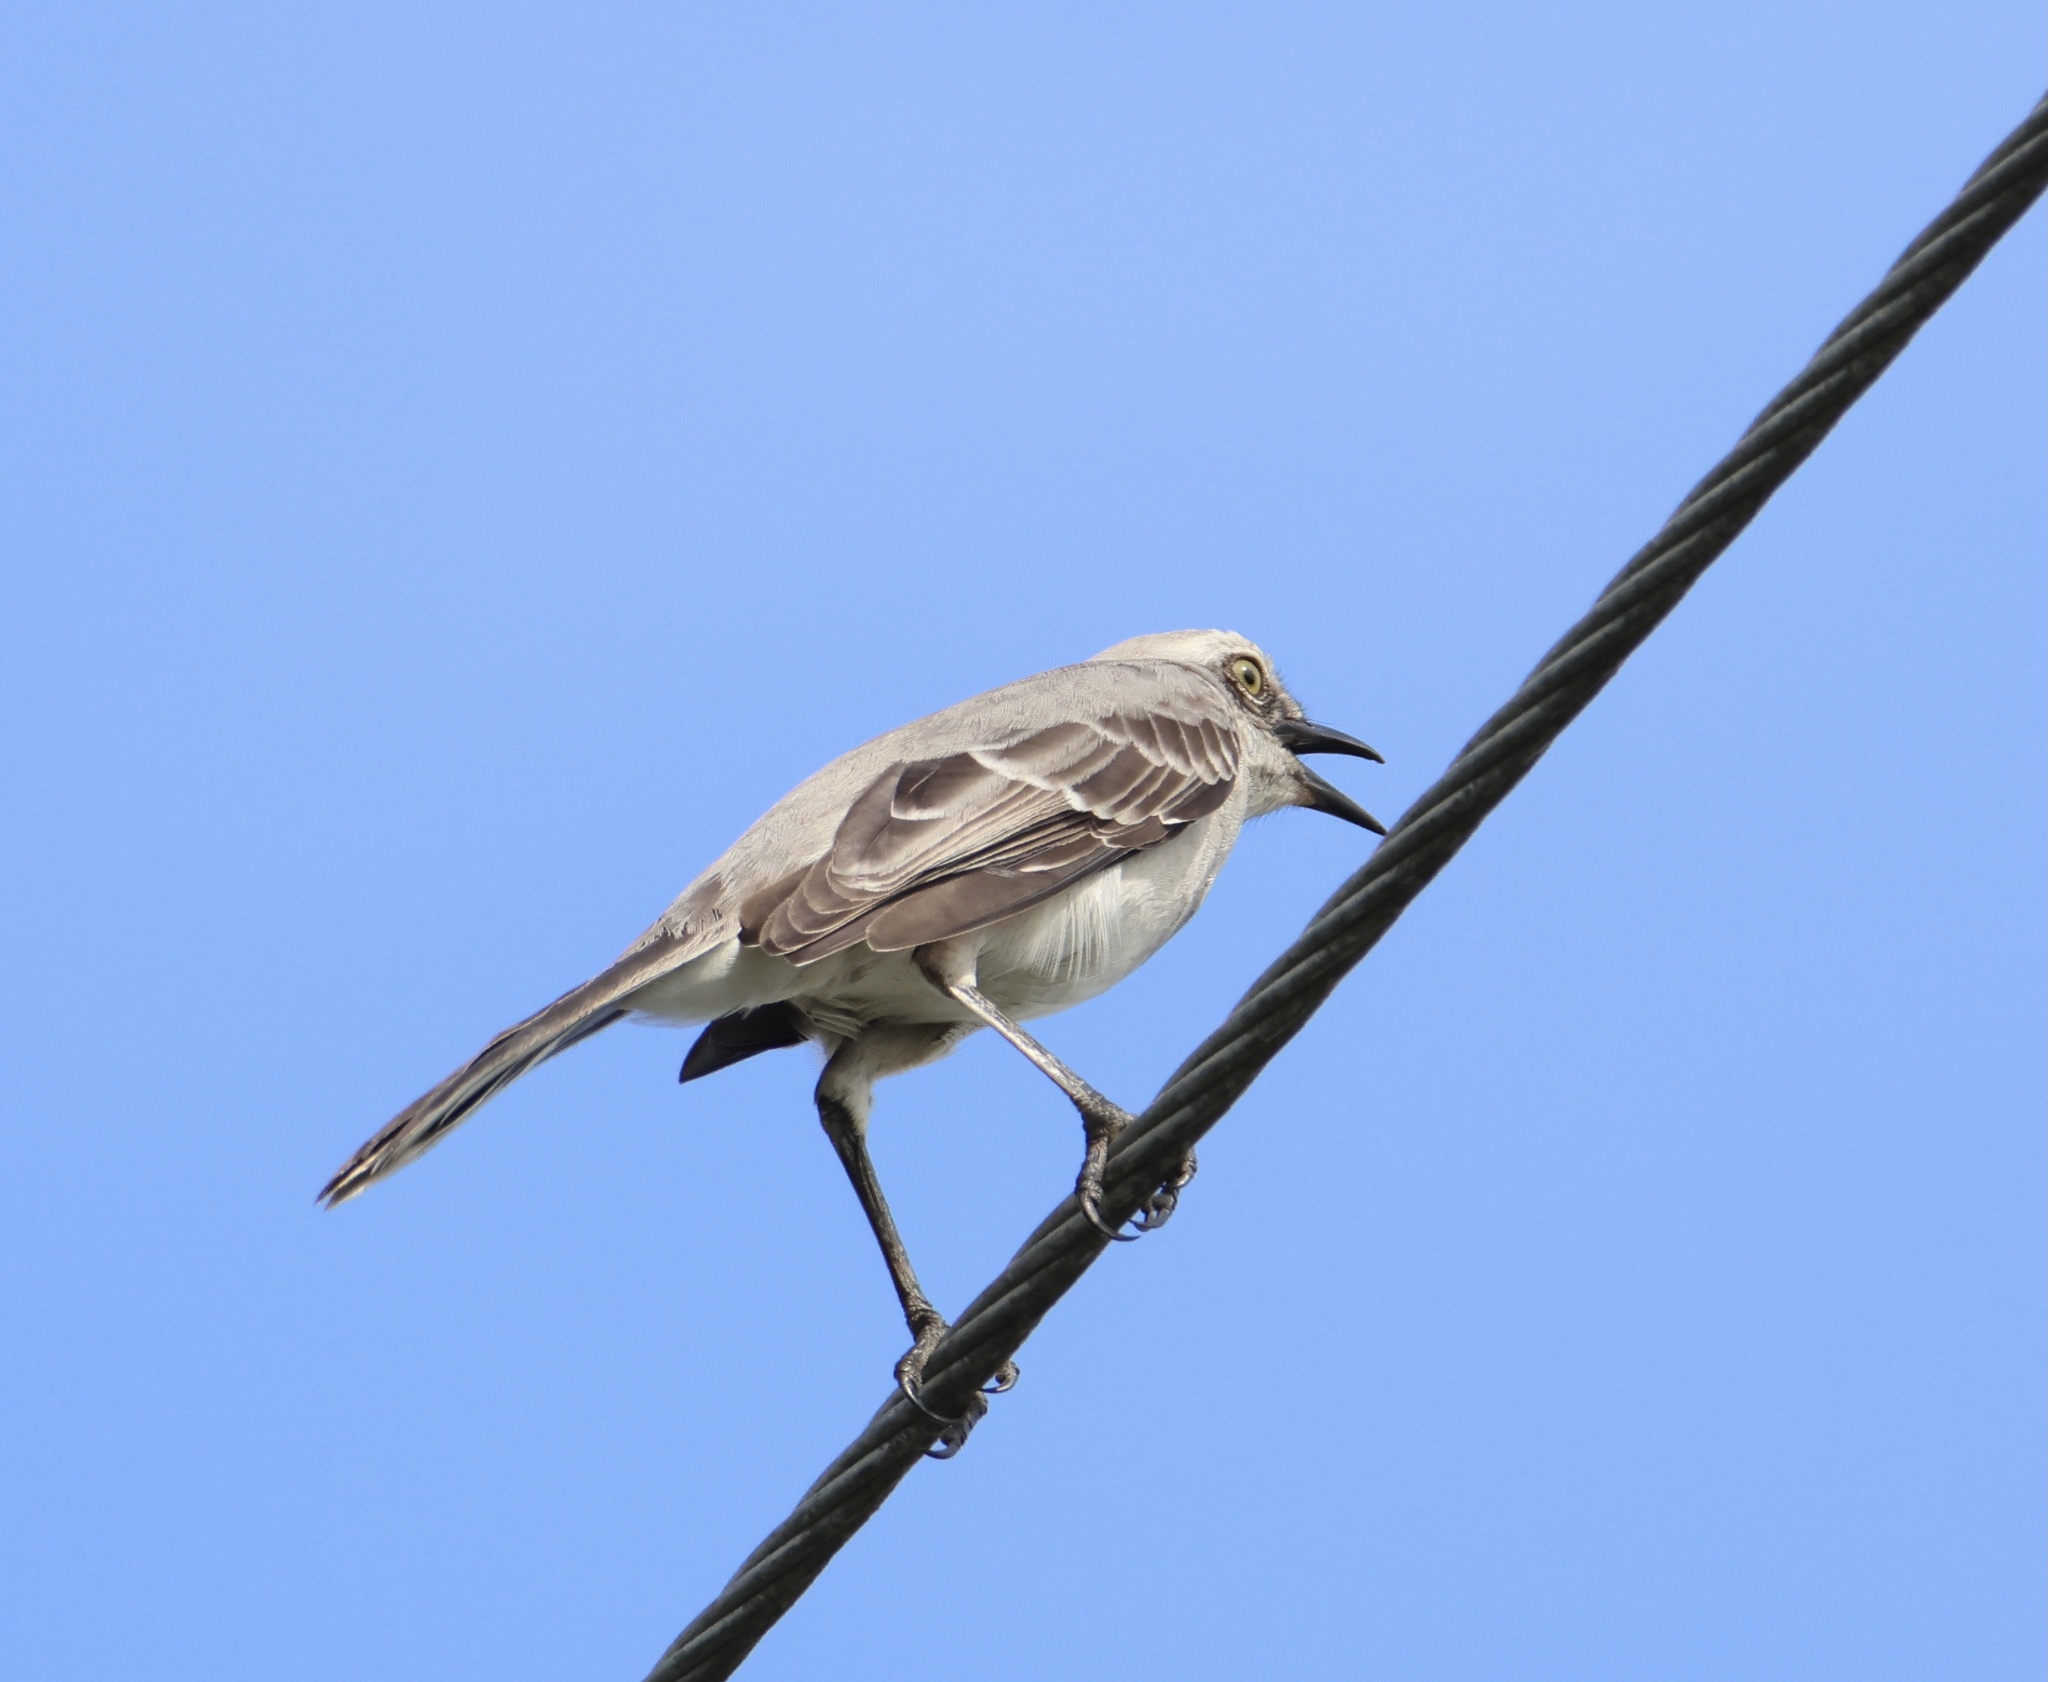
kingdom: Animalia
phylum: Chordata
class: Aves
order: Passeriformes
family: Mimidae
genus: Mimus
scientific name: Mimus gilvus
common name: Tropical mockingbird
